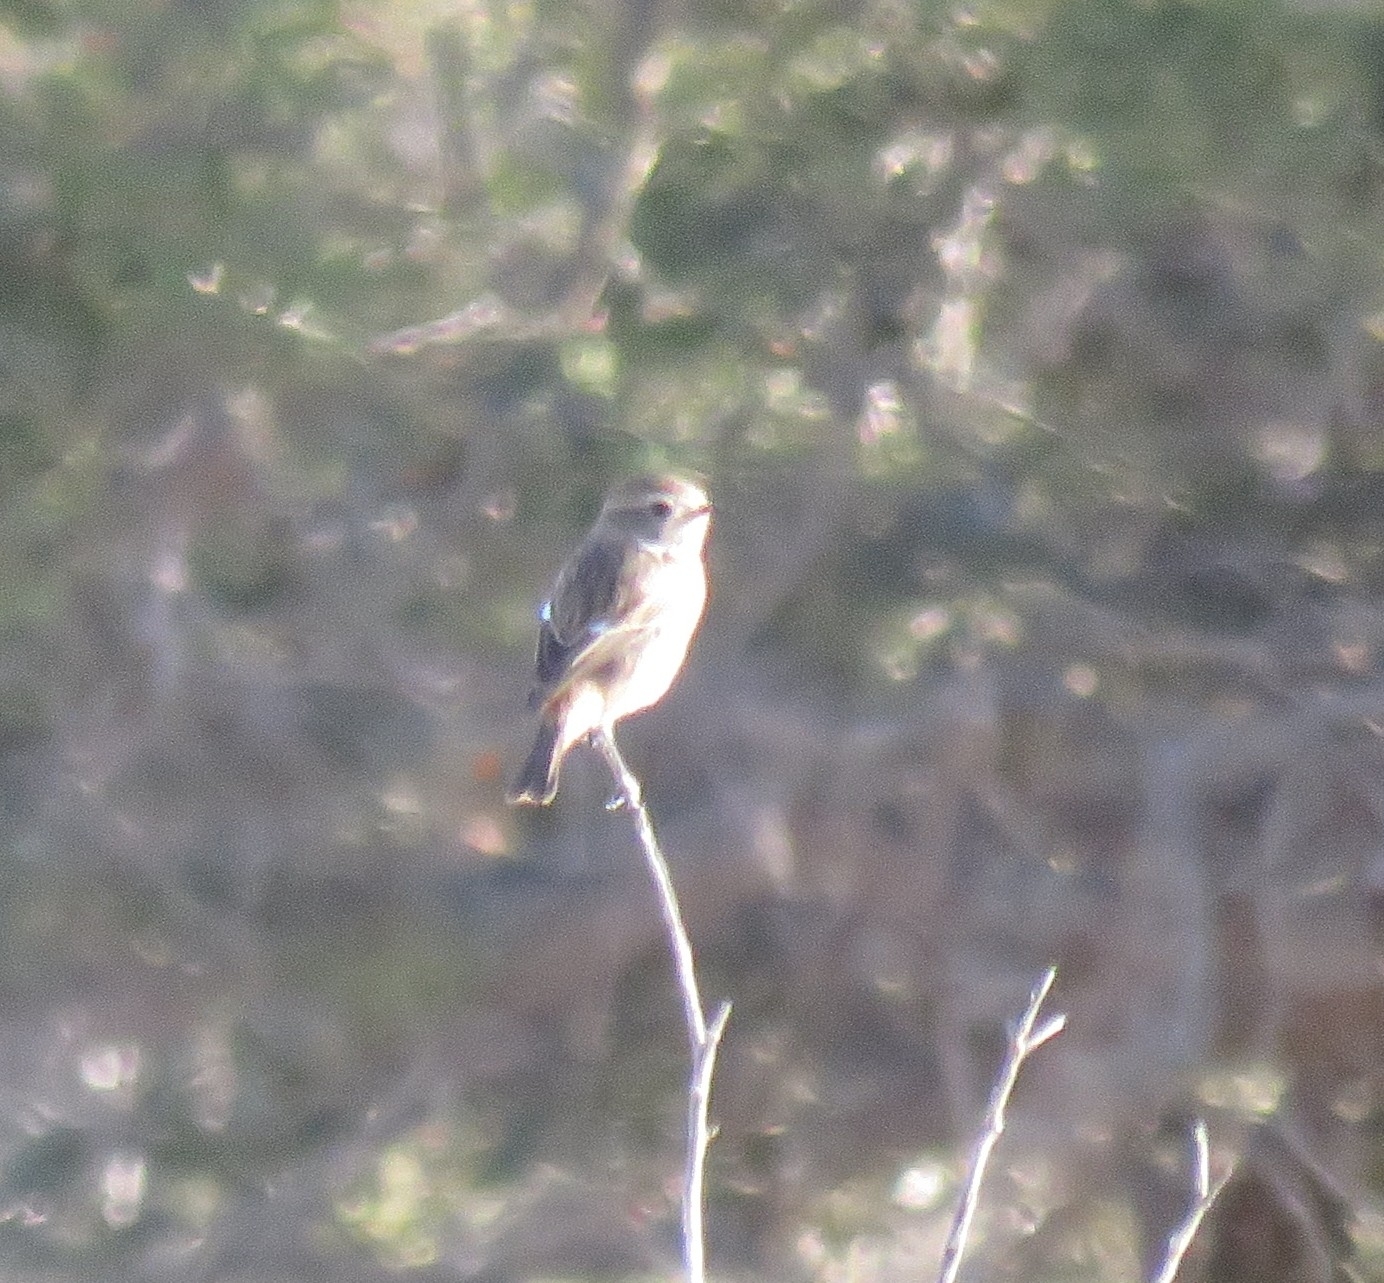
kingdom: Animalia
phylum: Chordata
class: Aves
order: Passeriformes
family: Muscicapidae
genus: Saxicola
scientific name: Saxicola rubicola
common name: European stonechat
